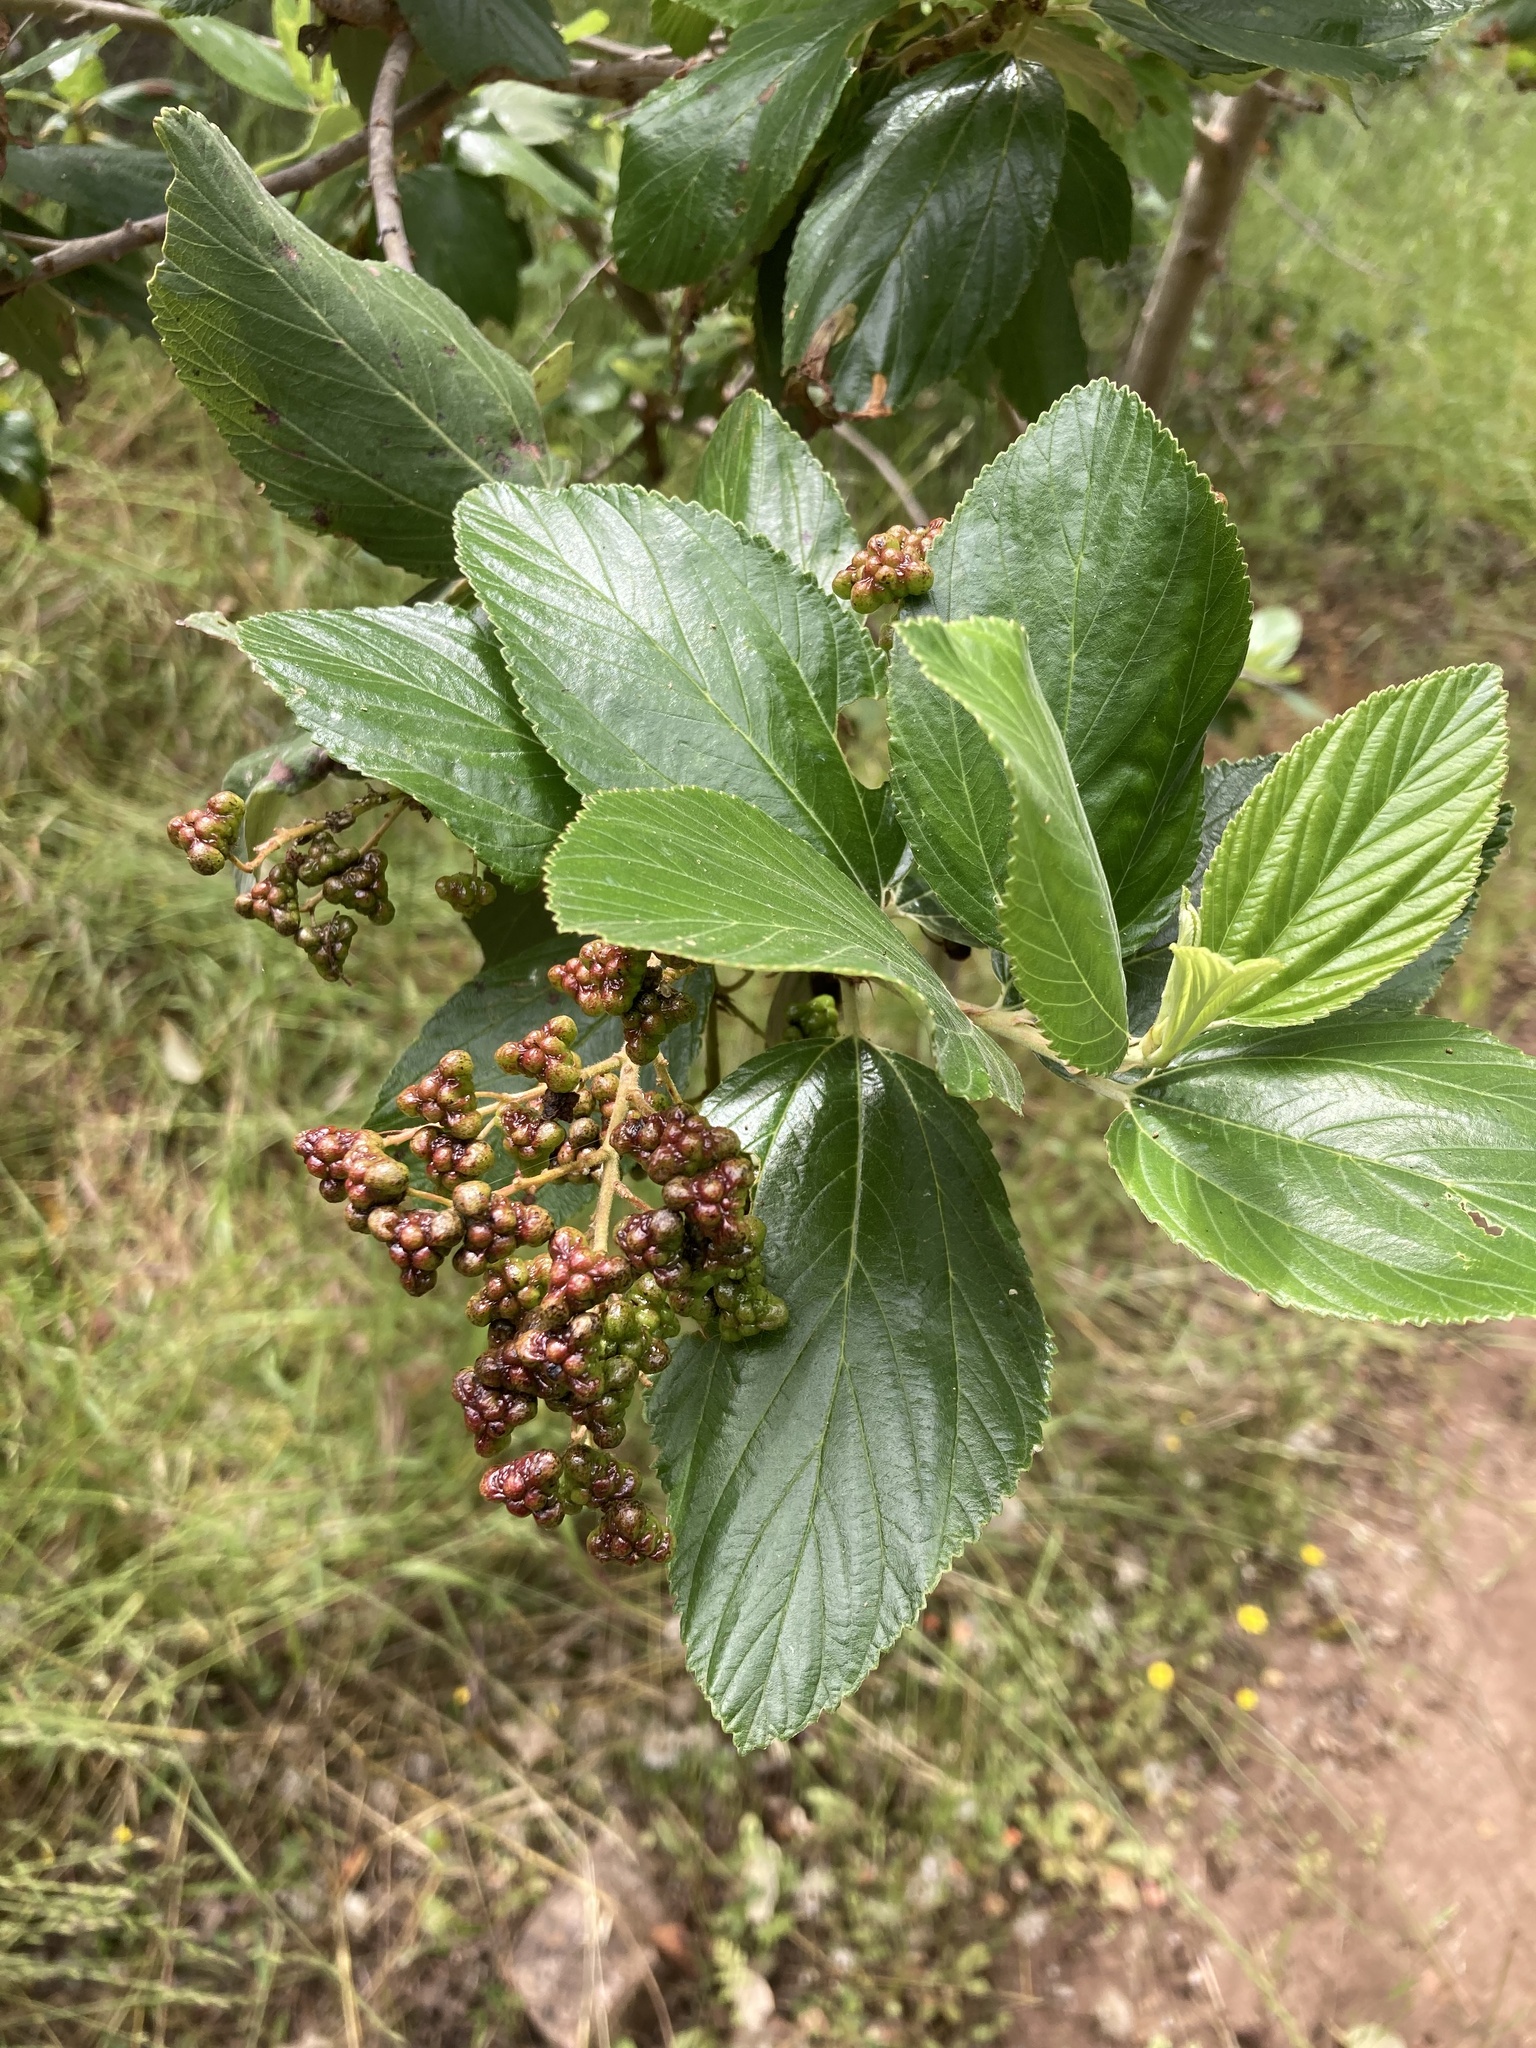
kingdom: Plantae
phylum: Tracheophyta
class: Magnoliopsida
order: Rosales
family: Rhamnaceae
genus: Ceanothus
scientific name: Ceanothus arboreus
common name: Catalina mountain-lilac
